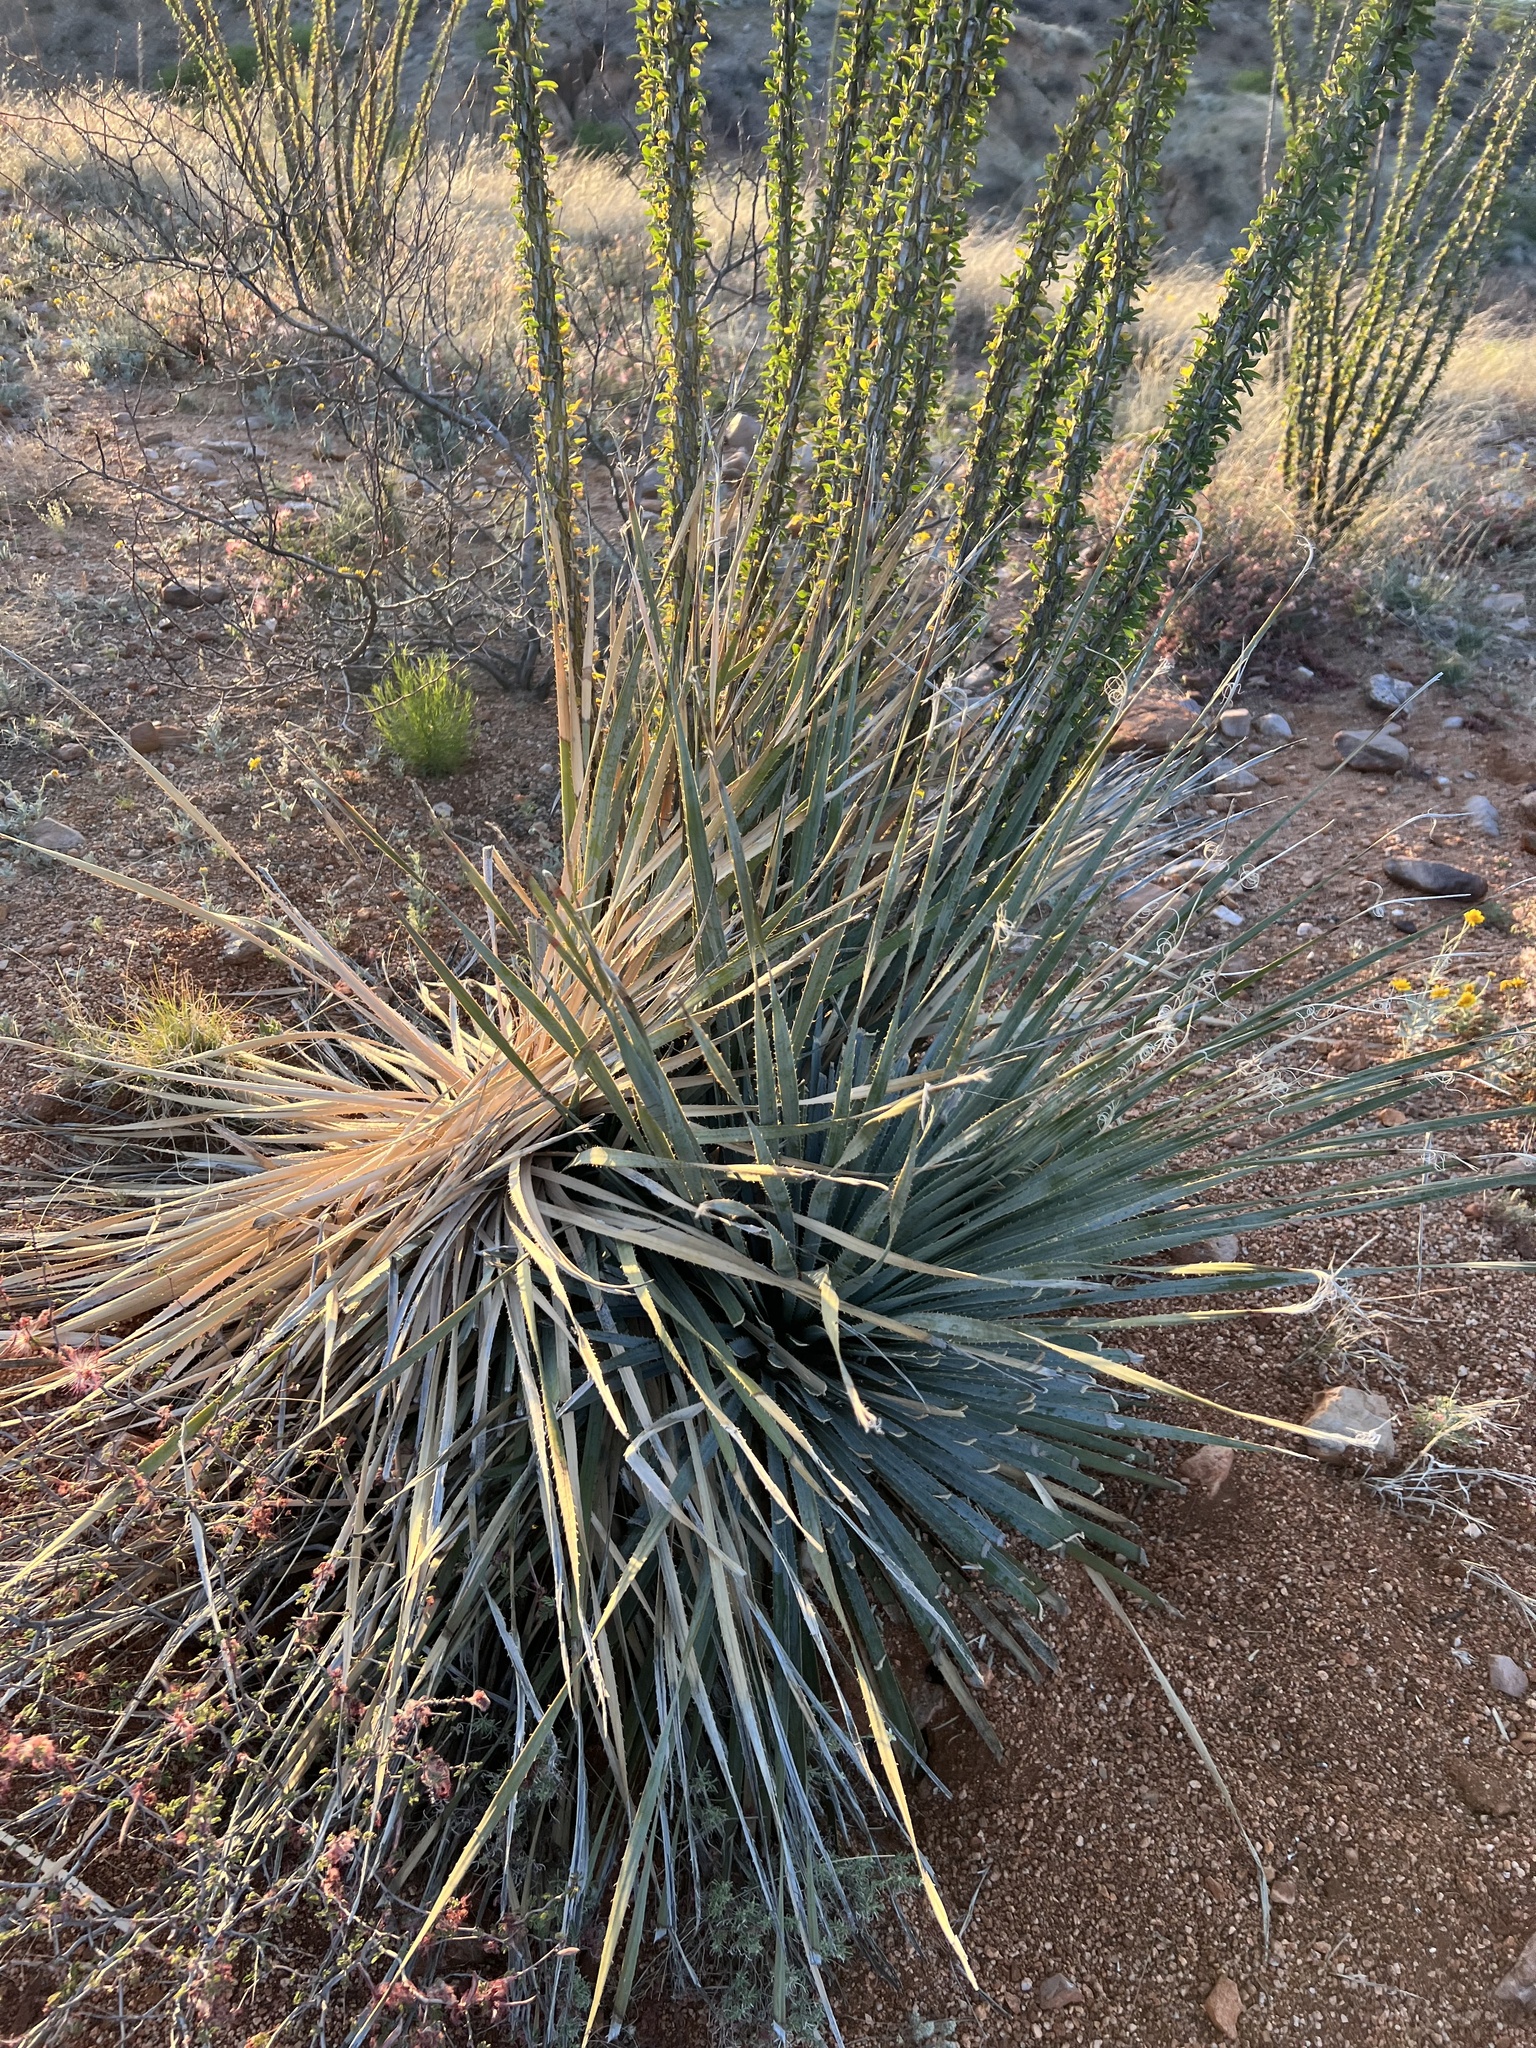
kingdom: Plantae
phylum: Tracheophyta
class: Liliopsida
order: Asparagales
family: Asparagaceae
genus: Dasylirion
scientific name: Dasylirion wheeleri
